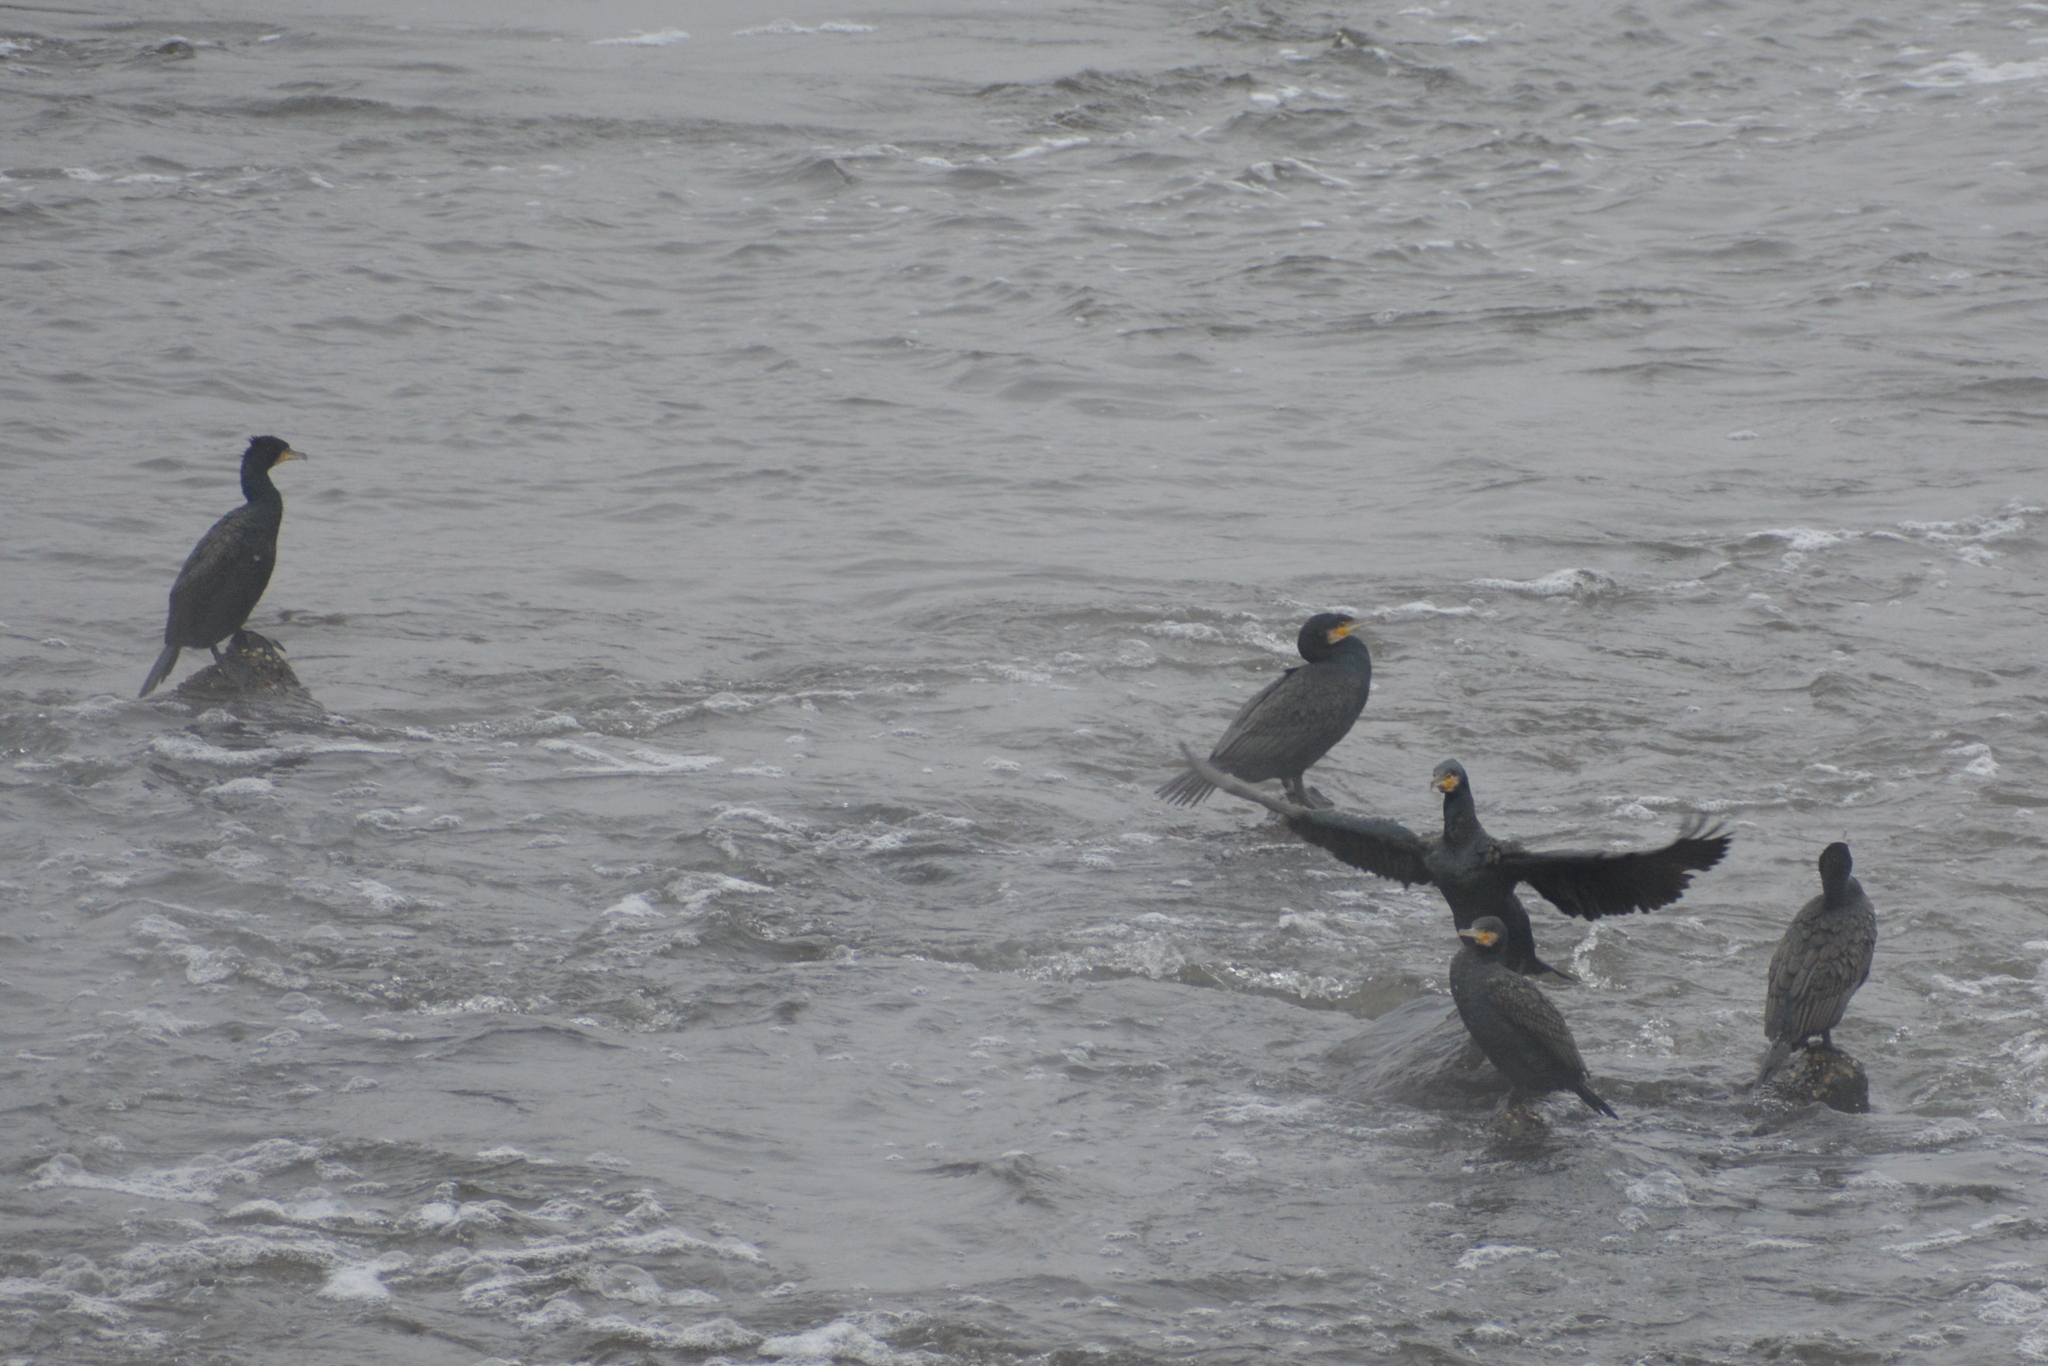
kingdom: Animalia
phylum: Chordata
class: Aves
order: Suliformes
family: Phalacrocoracidae
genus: Phalacrocorax
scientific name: Phalacrocorax carbo
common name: Great cormorant
